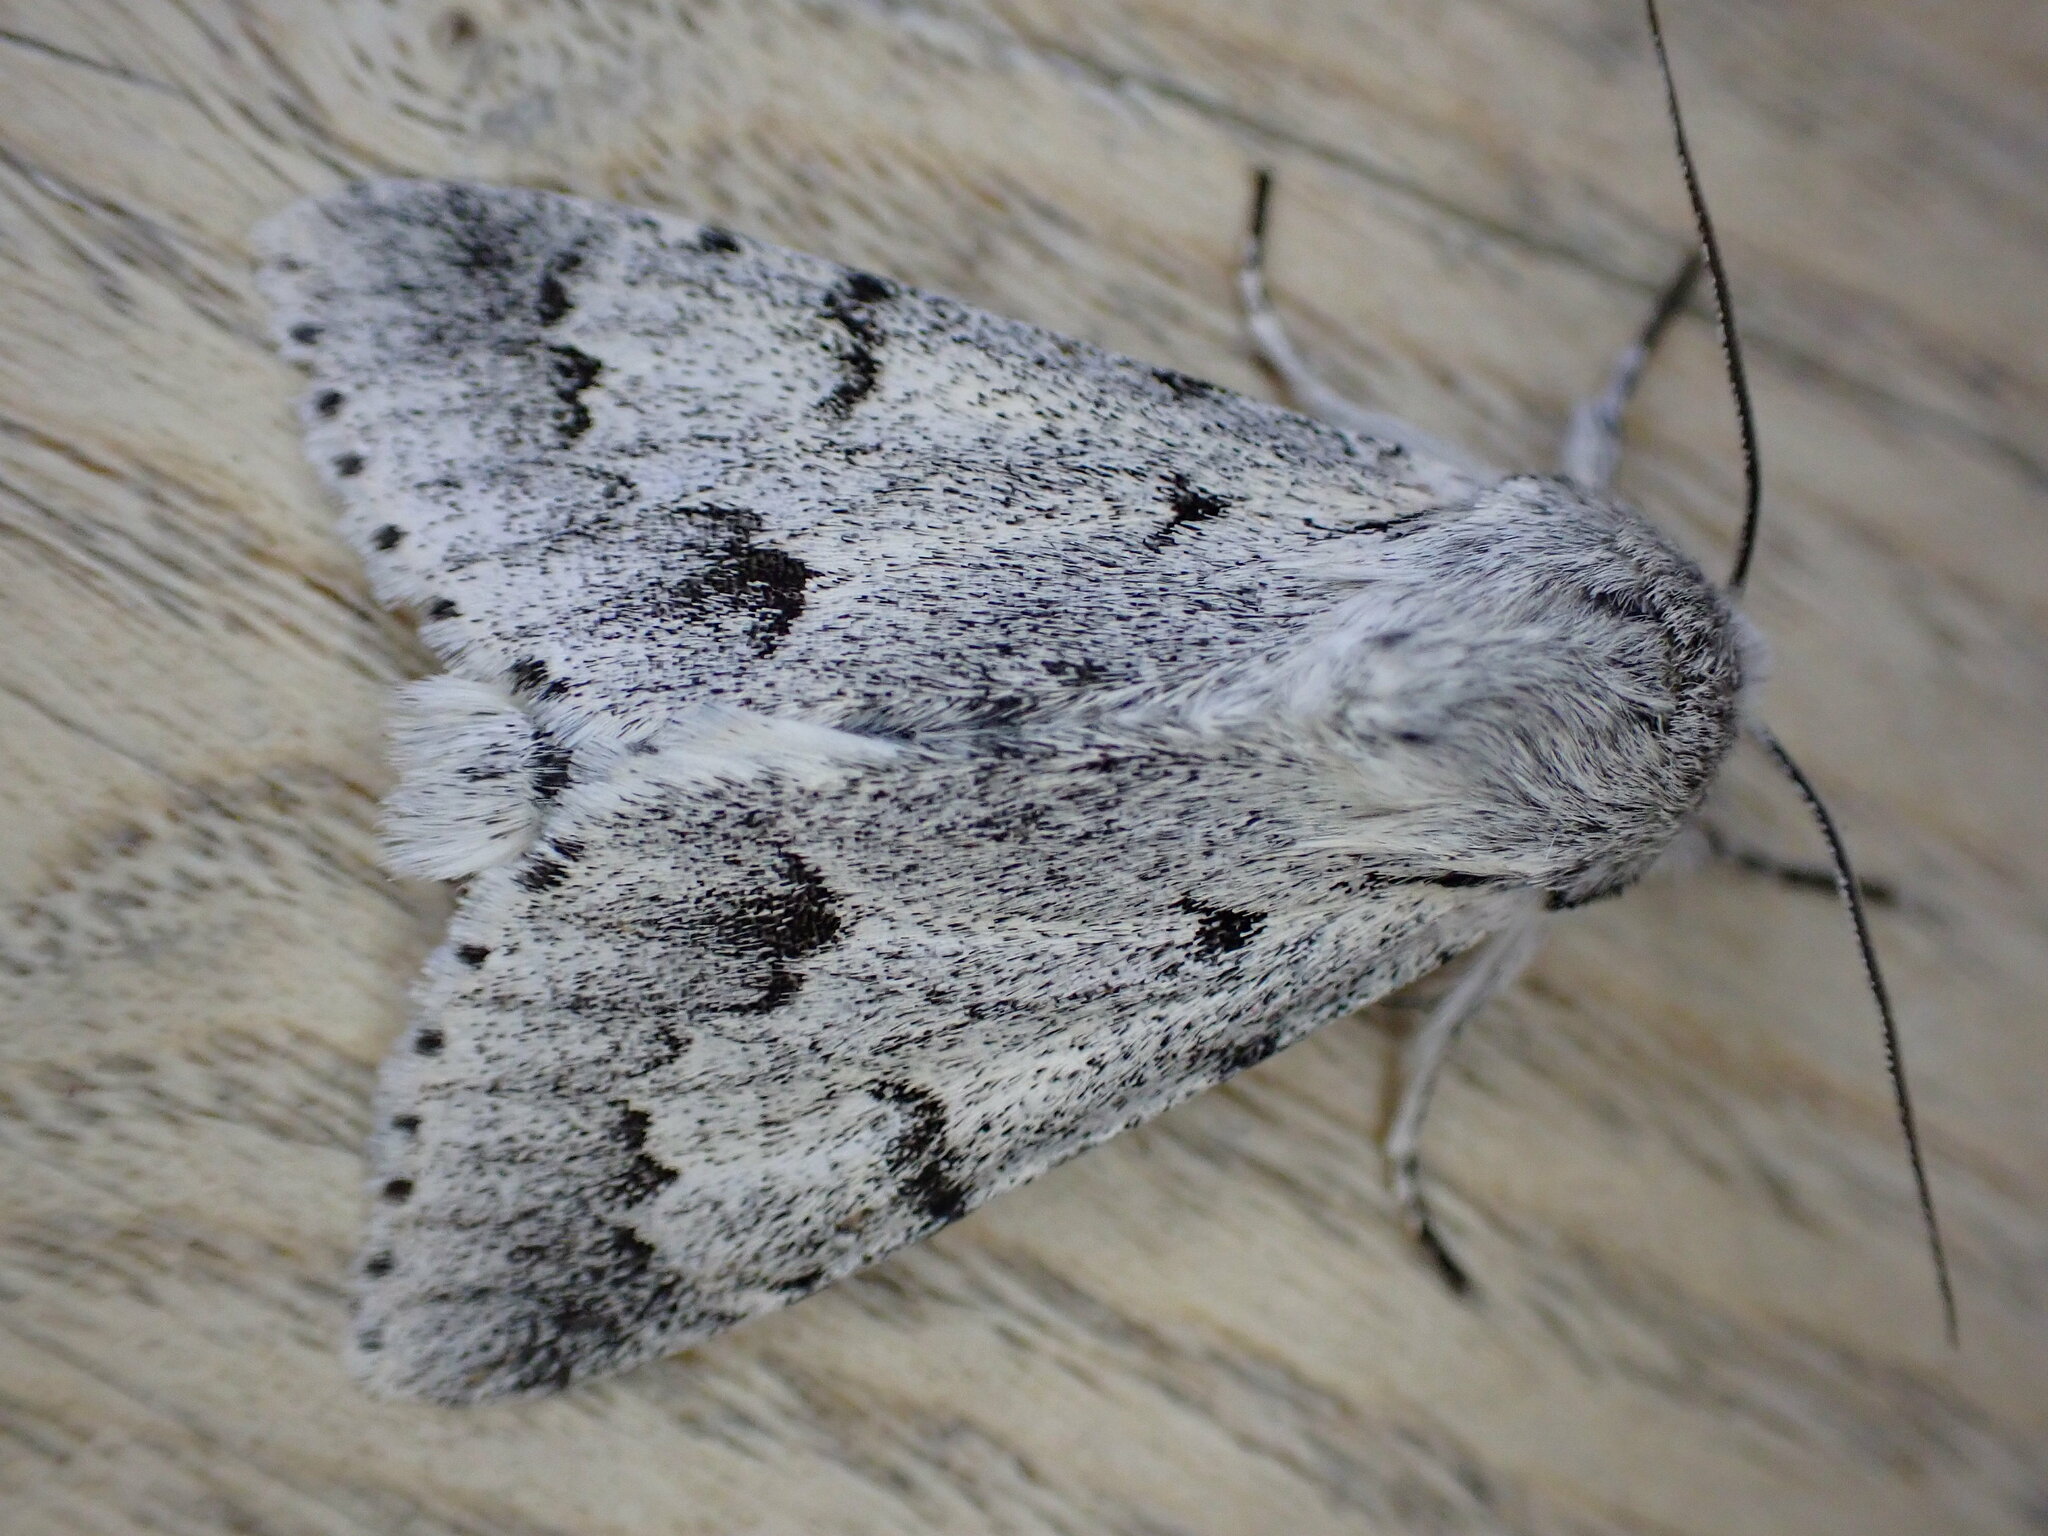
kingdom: Animalia
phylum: Arthropoda
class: Insecta
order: Lepidoptera
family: Noctuidae
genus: Acronicta
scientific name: Acronicta leporina
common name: Miller
